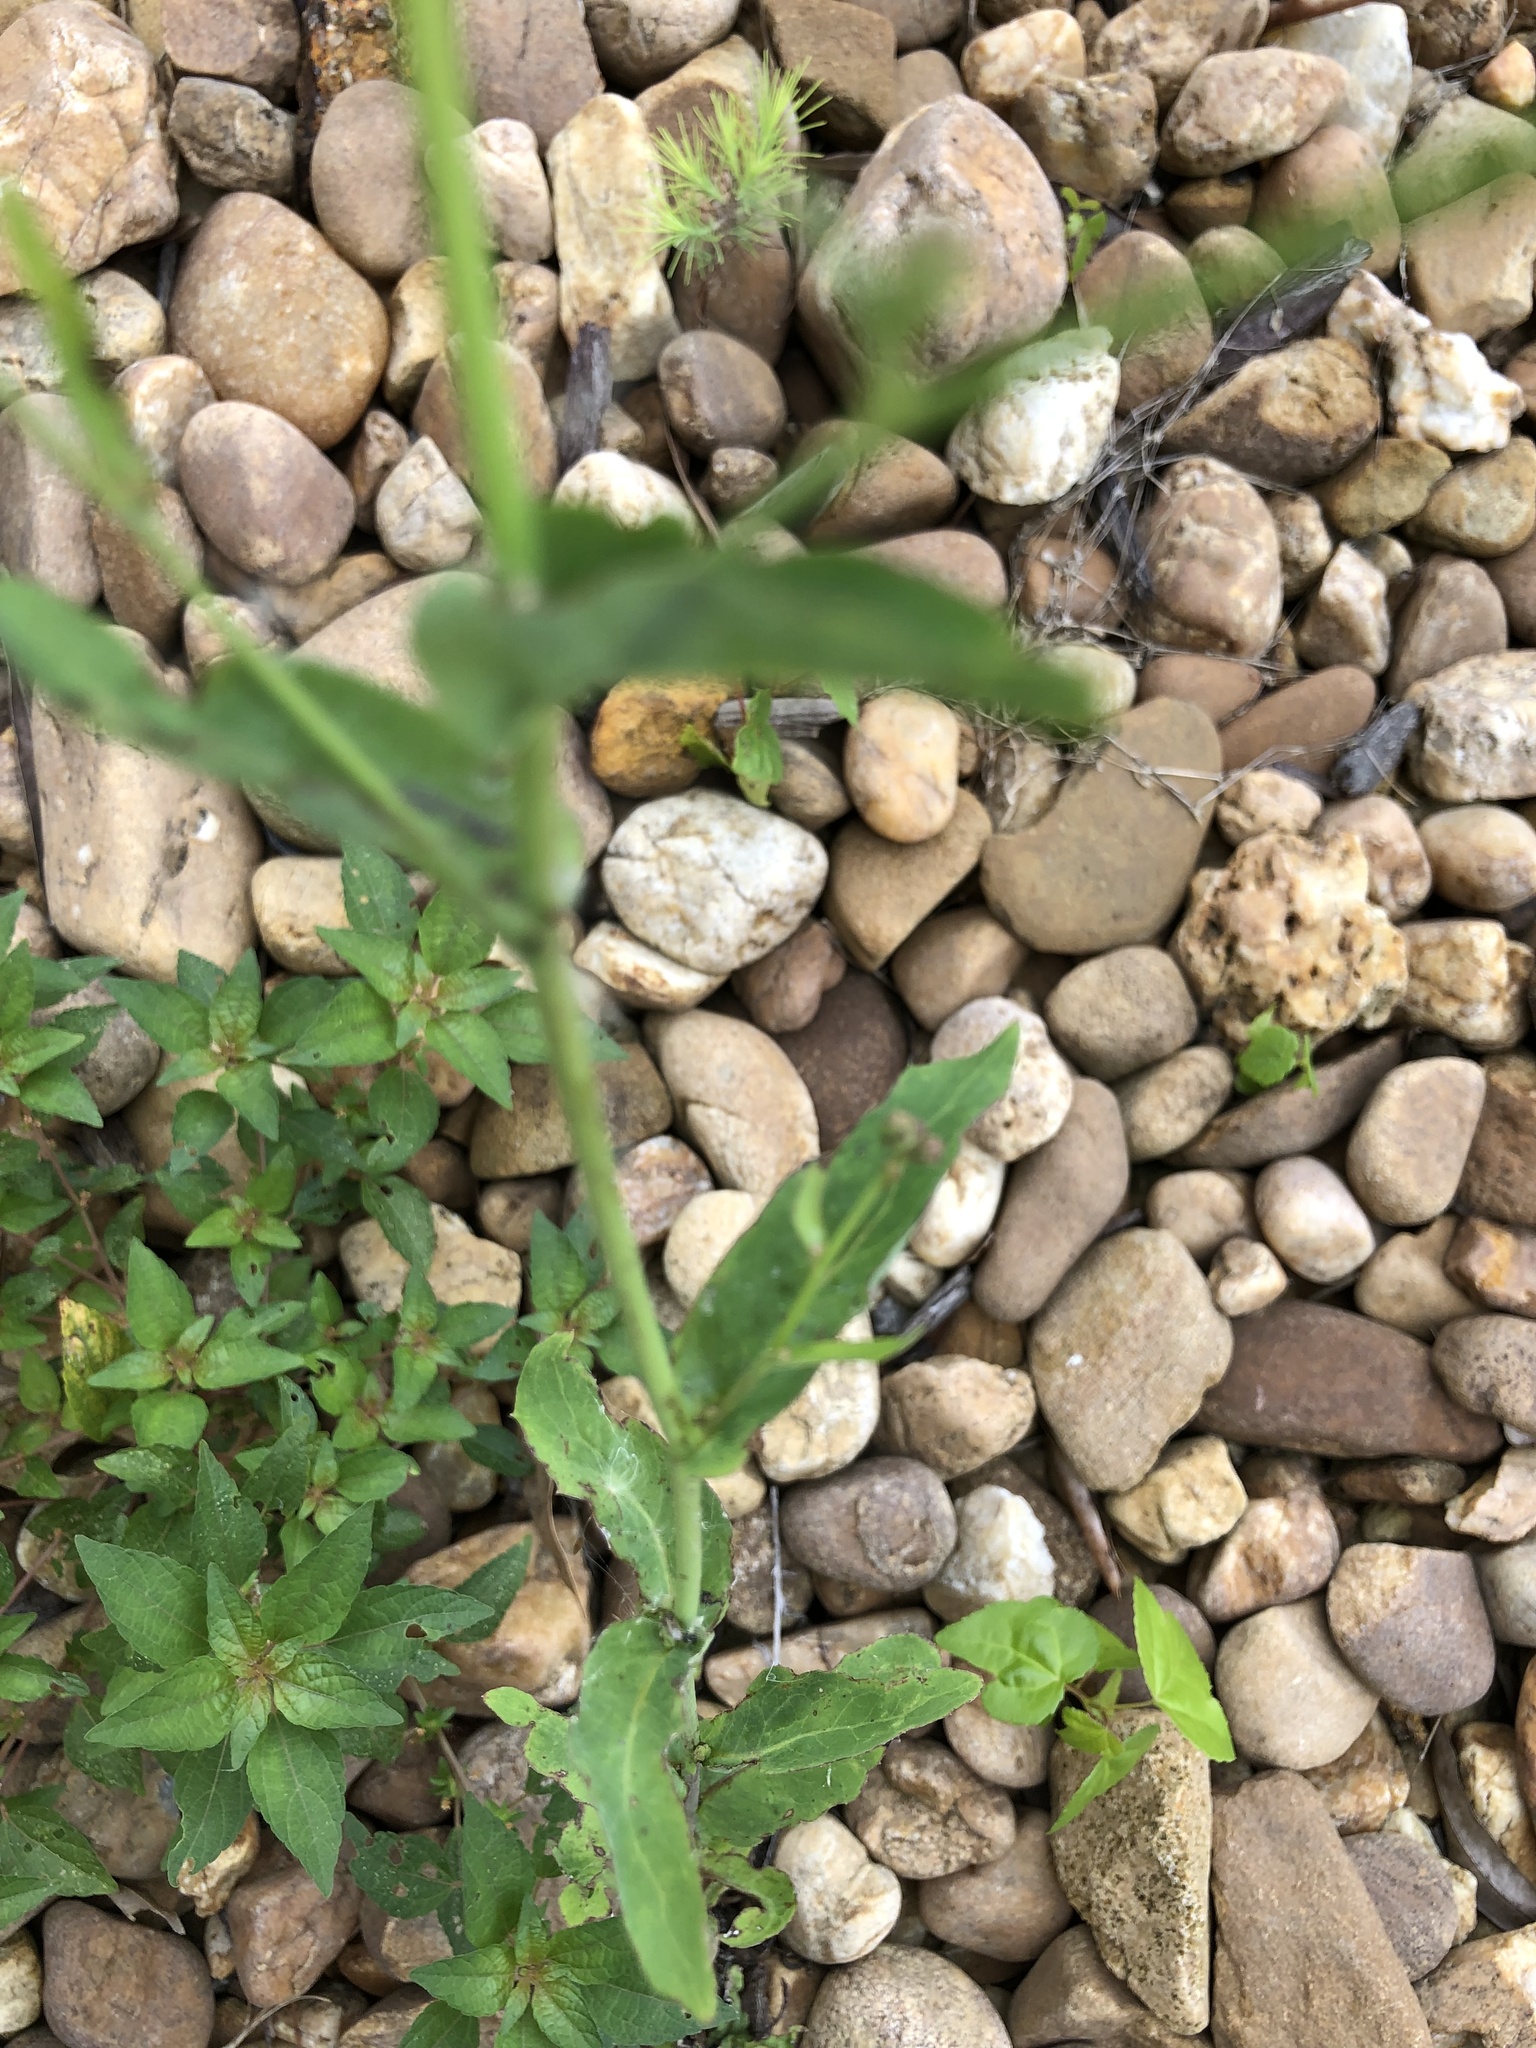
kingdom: Plantae
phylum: Tracheophyta
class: Magnoliopsida
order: Asterales
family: Asteraceae
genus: Lactuca
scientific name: Lactuca canadensis
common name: Canada lettuce
